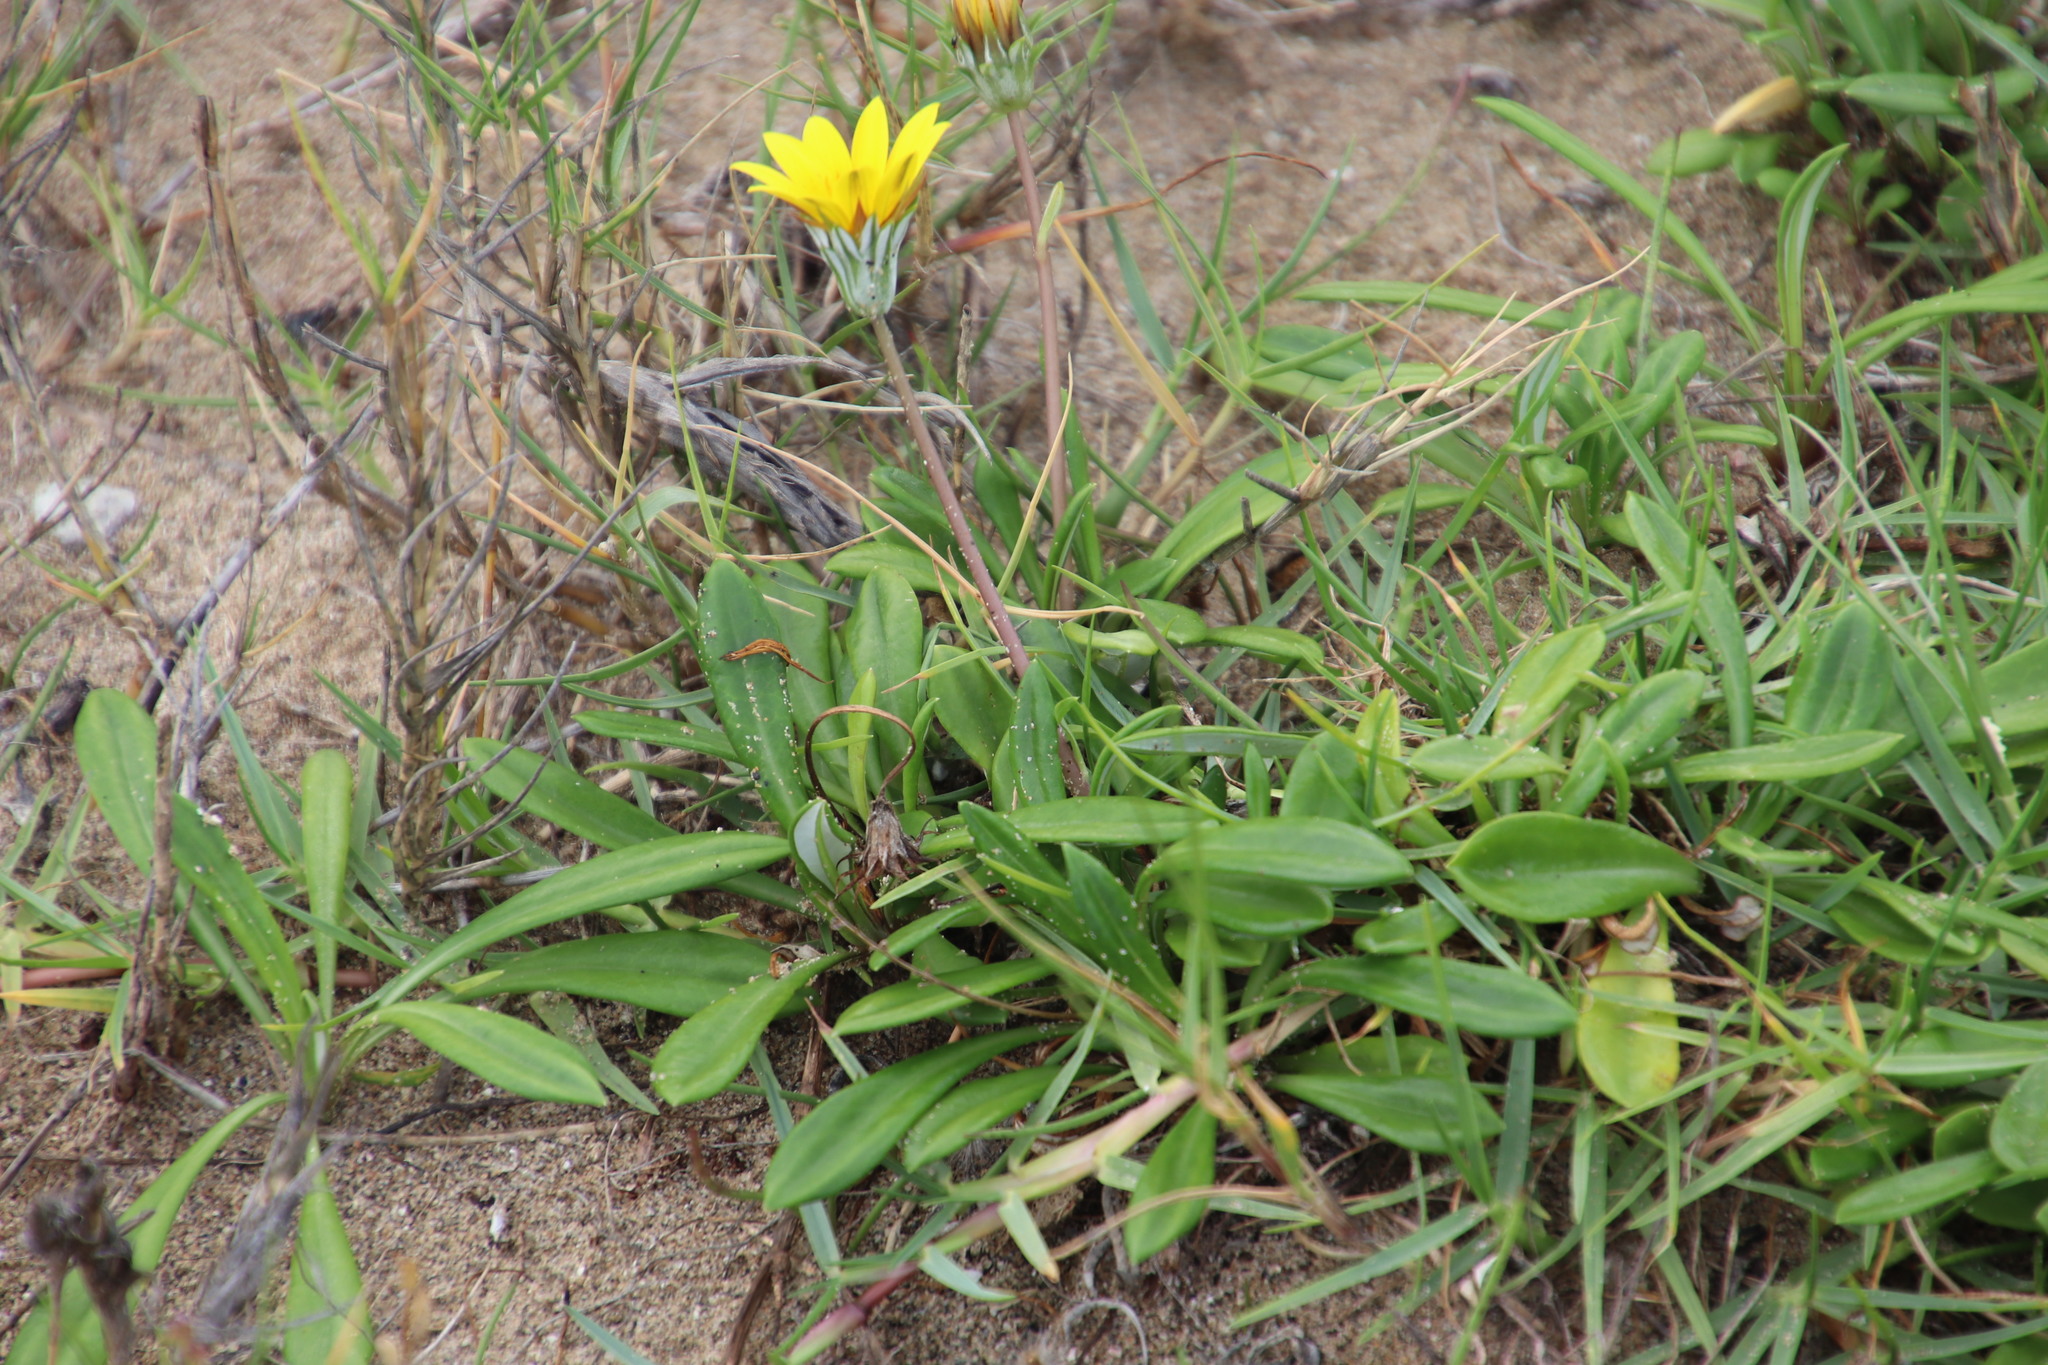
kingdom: Plantae
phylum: Tracheophyta
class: Magnoliopsida
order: Asterales
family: Asteraceae
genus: Gazania
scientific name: Gazania rigens
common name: Treasureflower
